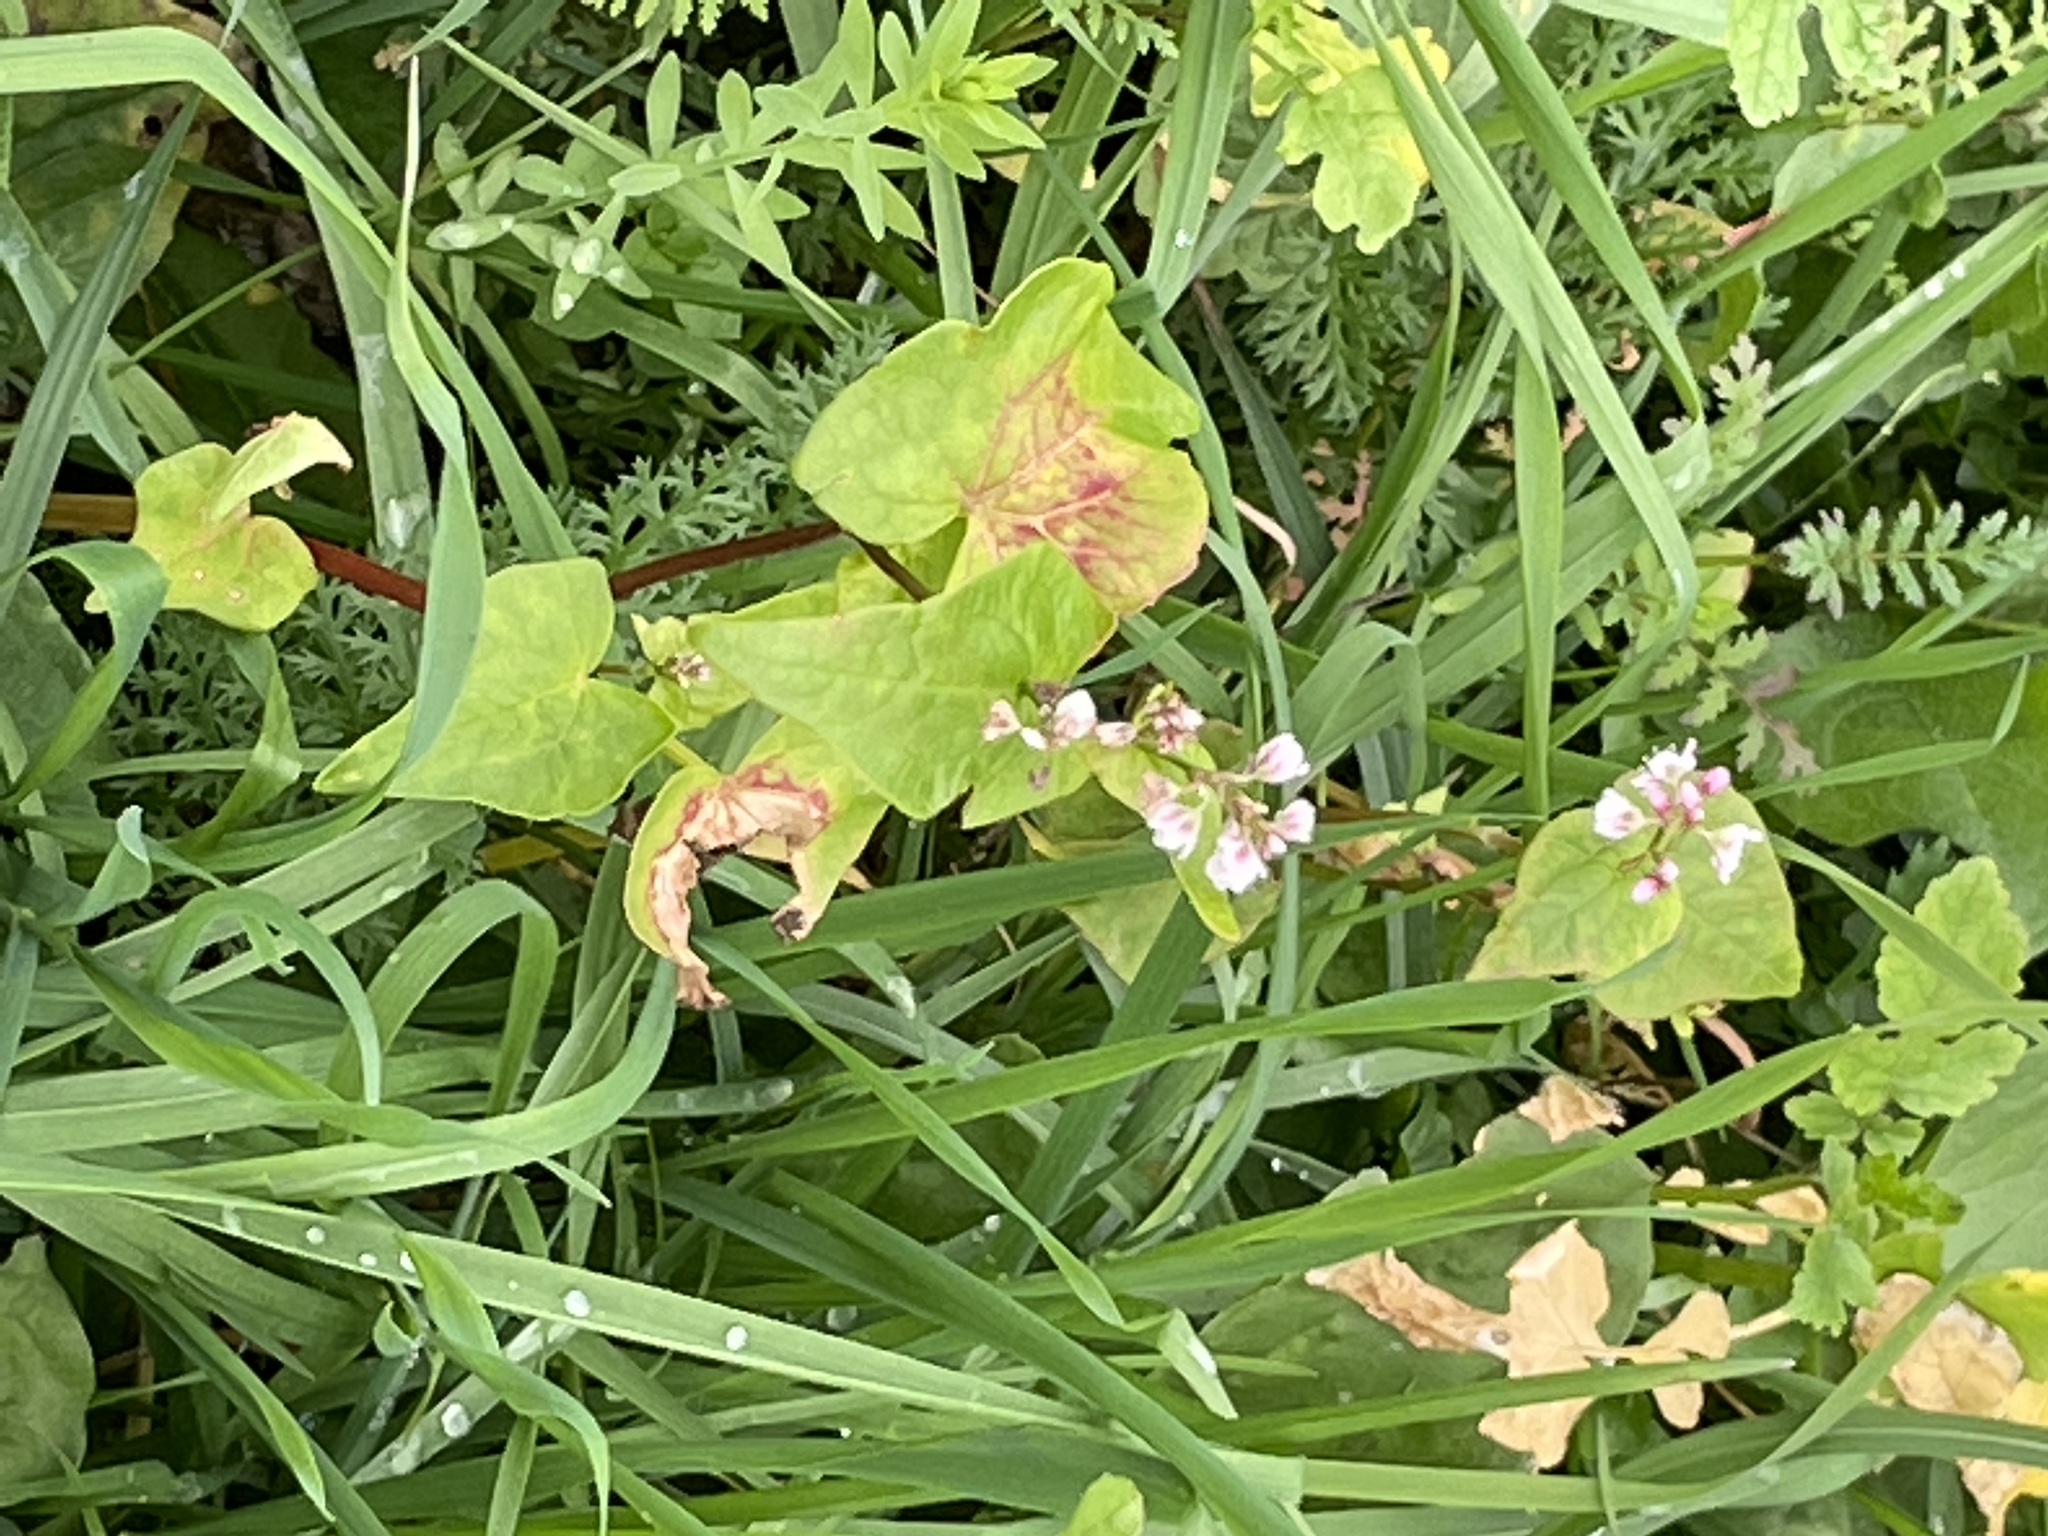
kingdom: Plantae
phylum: Tracheophyta
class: Magnoliopsida
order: Caryophyllales
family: Polygonaceae
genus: Fagopyrum
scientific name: Fagopyrum esculentum
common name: Buckwheat
